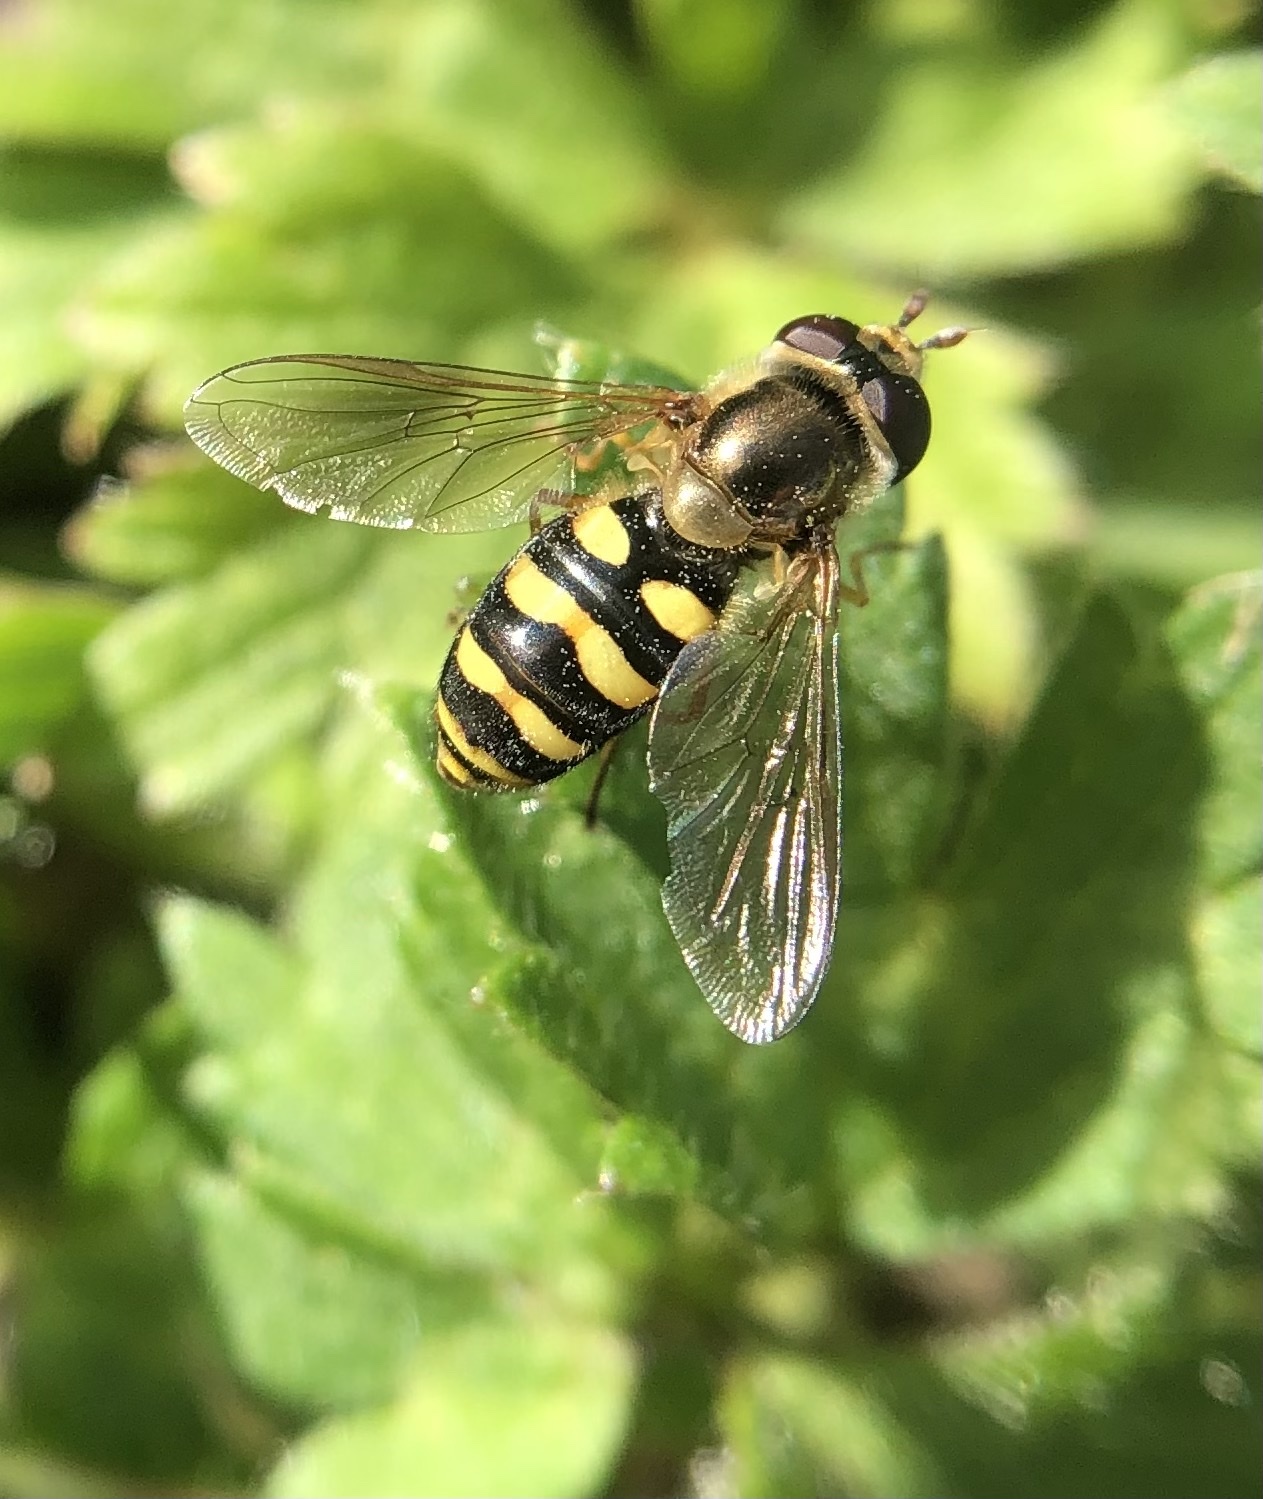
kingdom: Animalia
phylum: Arthropoda
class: Insecta
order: Diptera
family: Syrphidae
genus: Eupeodes
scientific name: Eupeodes fumipennis
